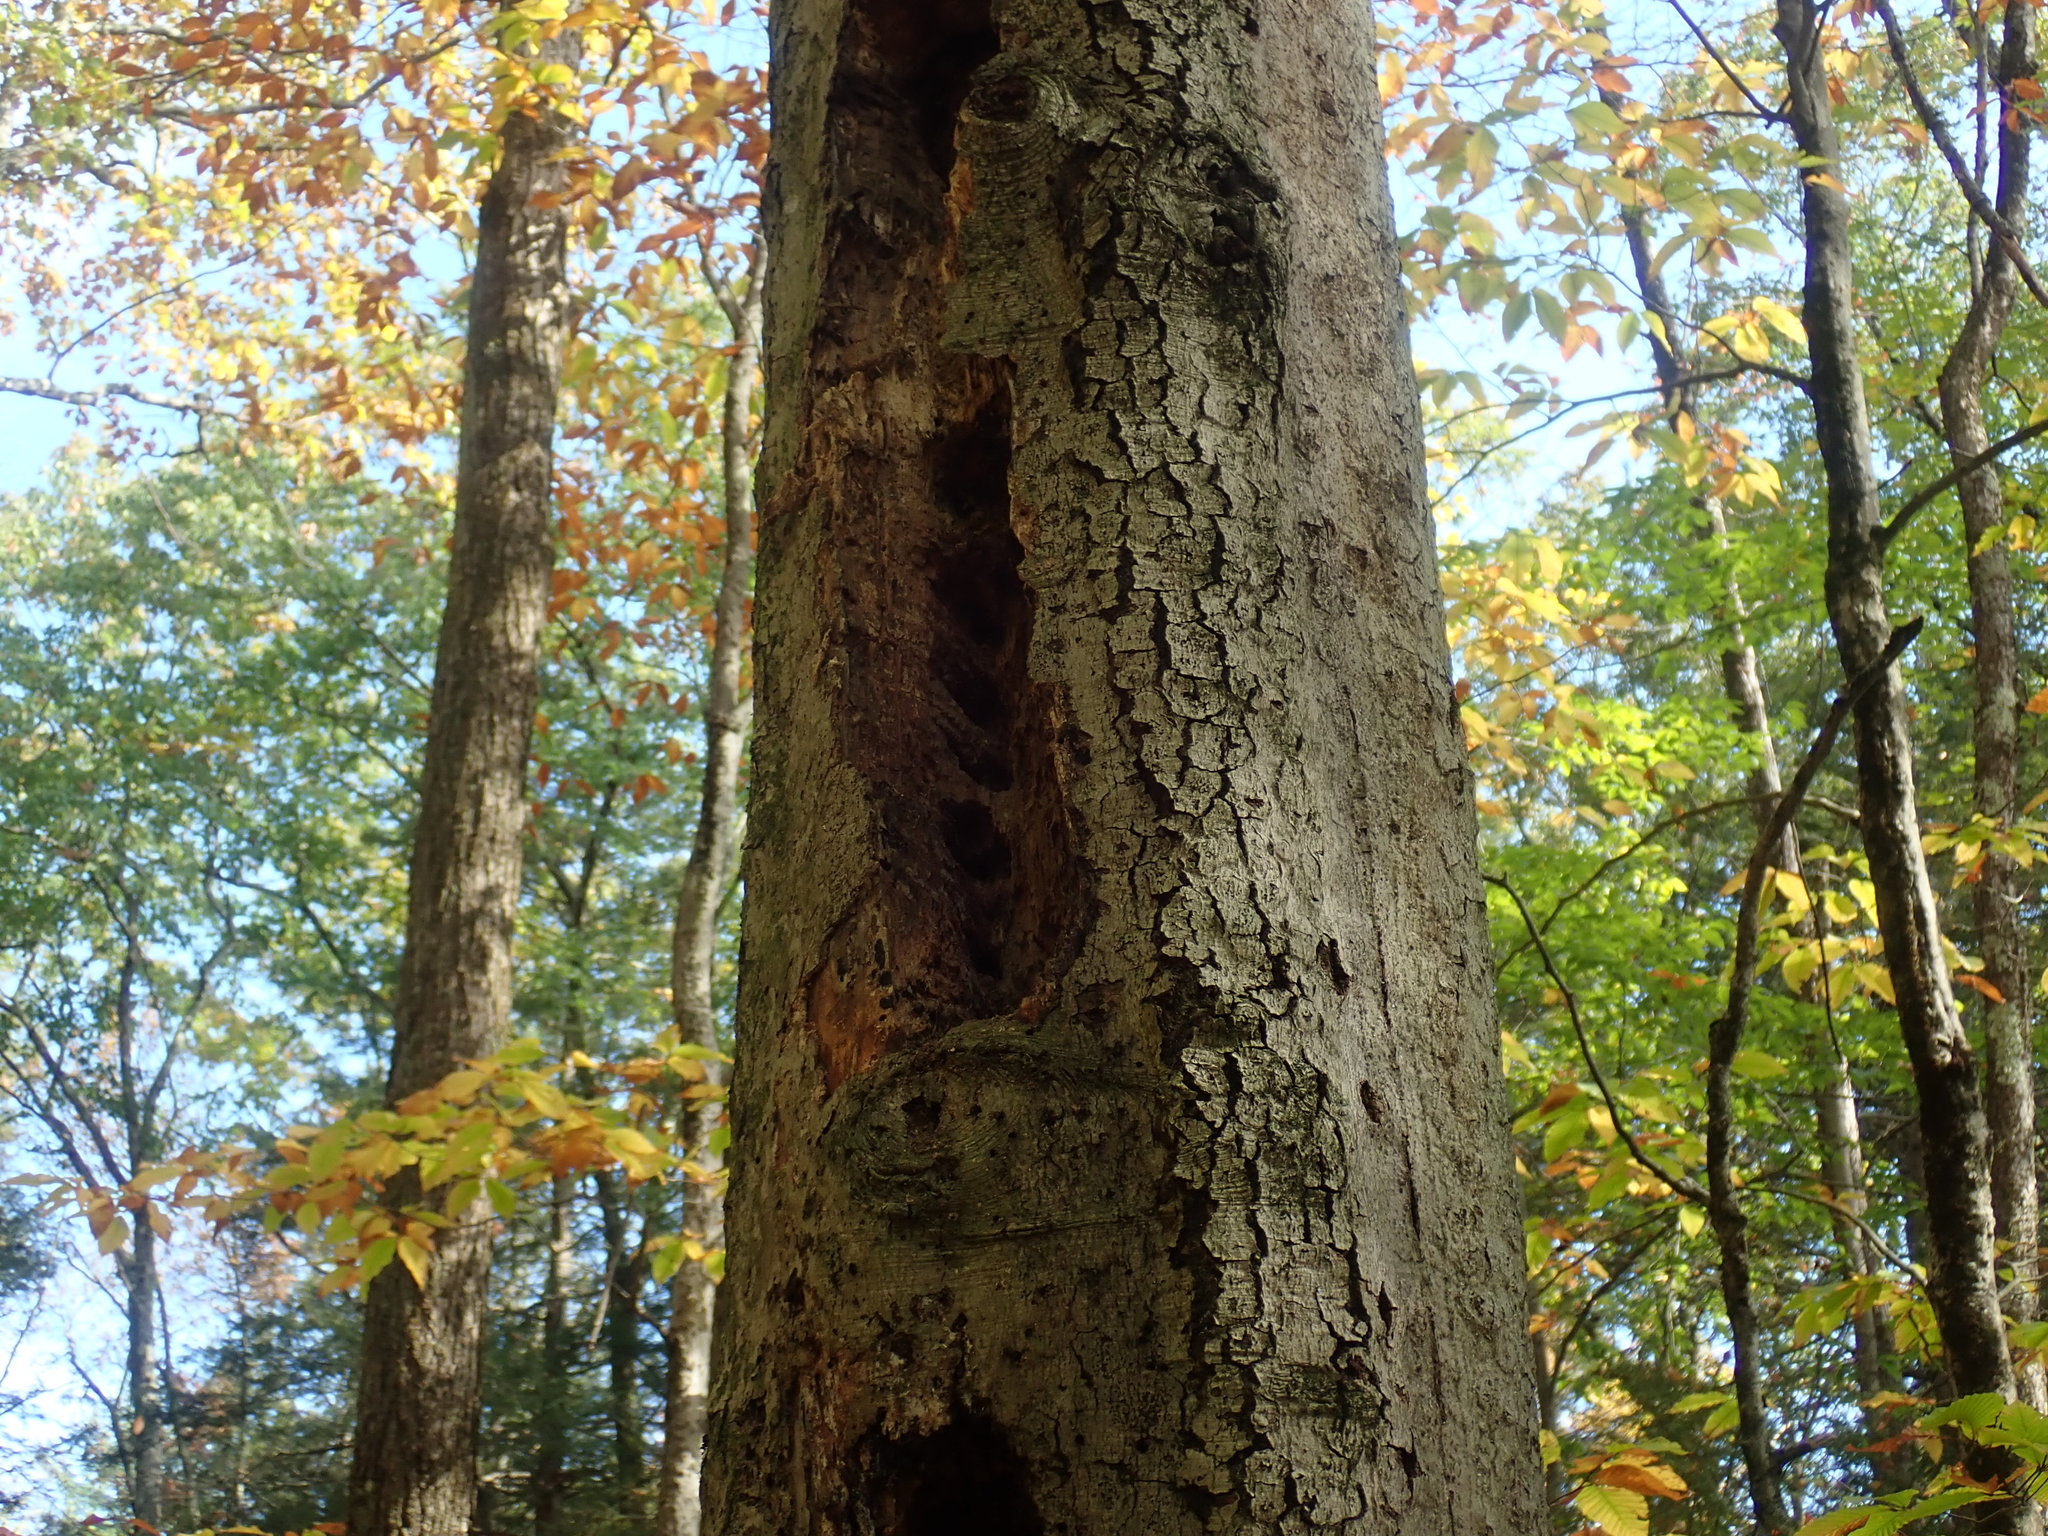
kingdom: Animalia
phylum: Chordata
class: Aves
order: Piciformes
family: Picidae
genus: Dryocopus
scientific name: Dryocopus pileatus
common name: Pileated woodpecker
